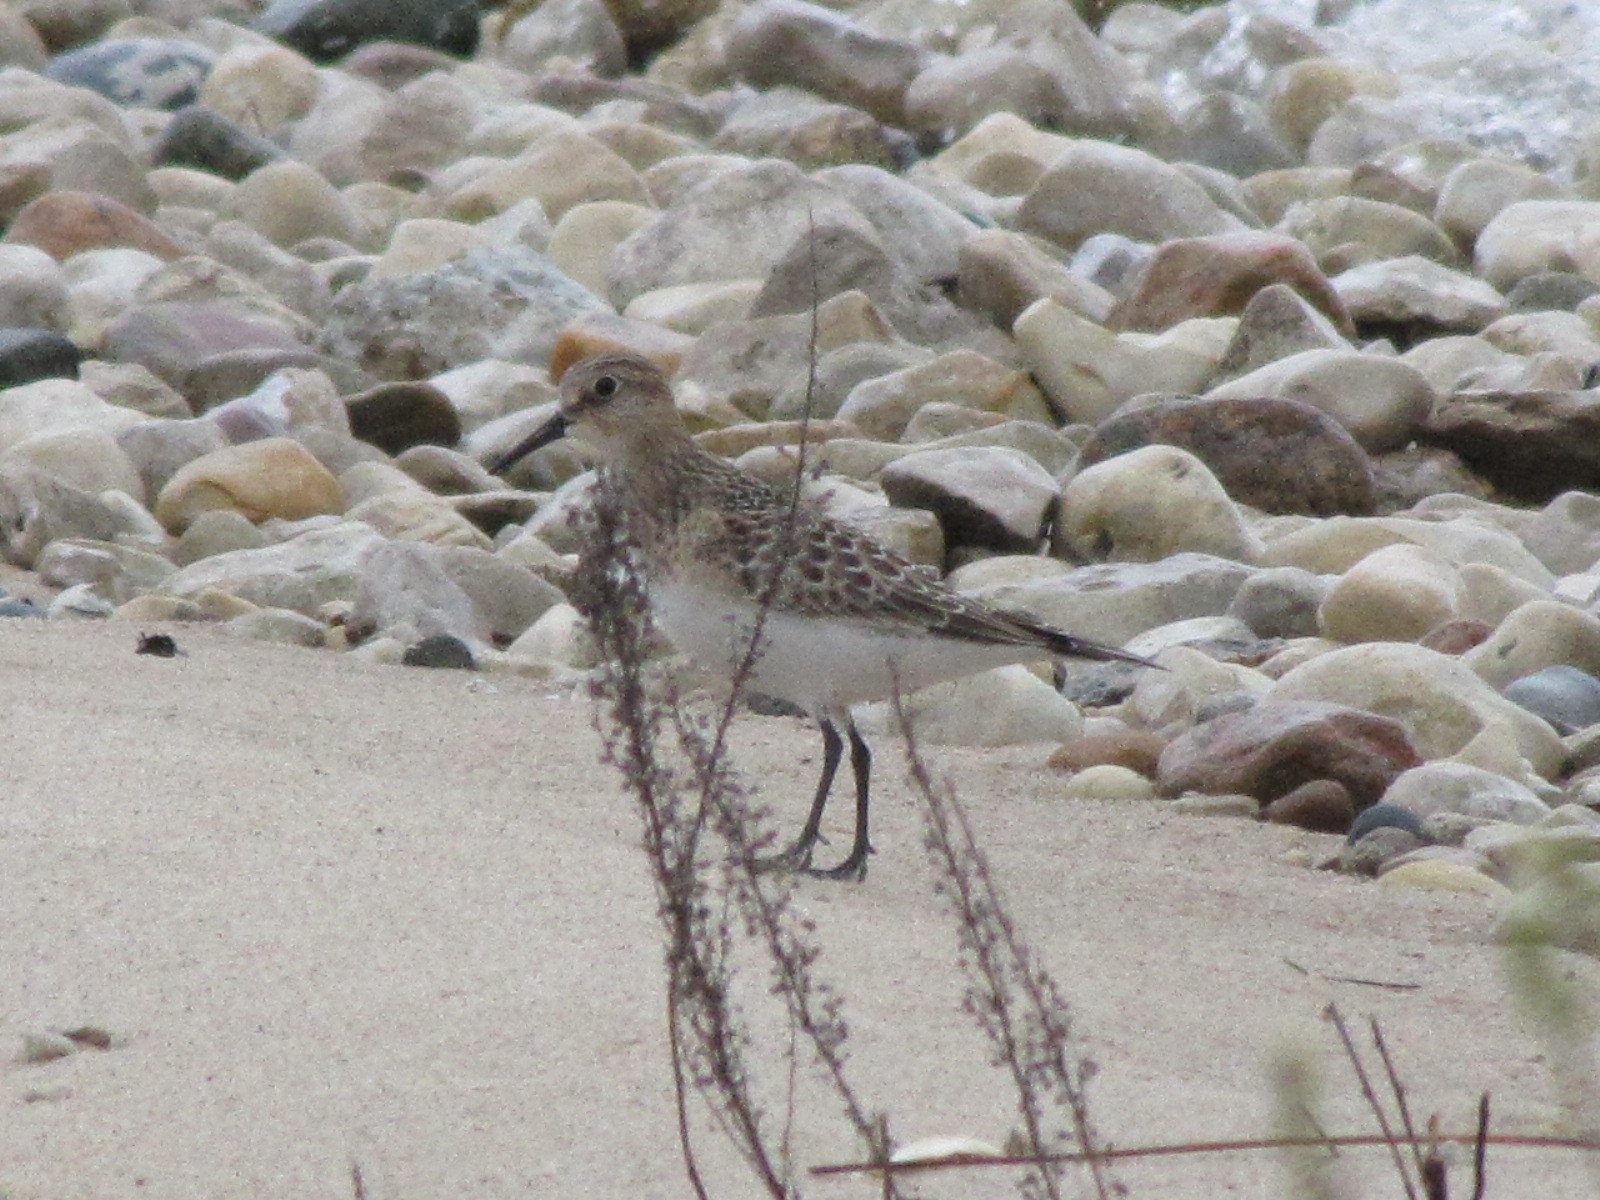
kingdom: Animalia
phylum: Chordata
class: Aves
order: Charadriiformes
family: Scolopacidae
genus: Calidris
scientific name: Calidris bairdii
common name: Baird's sandpiper
